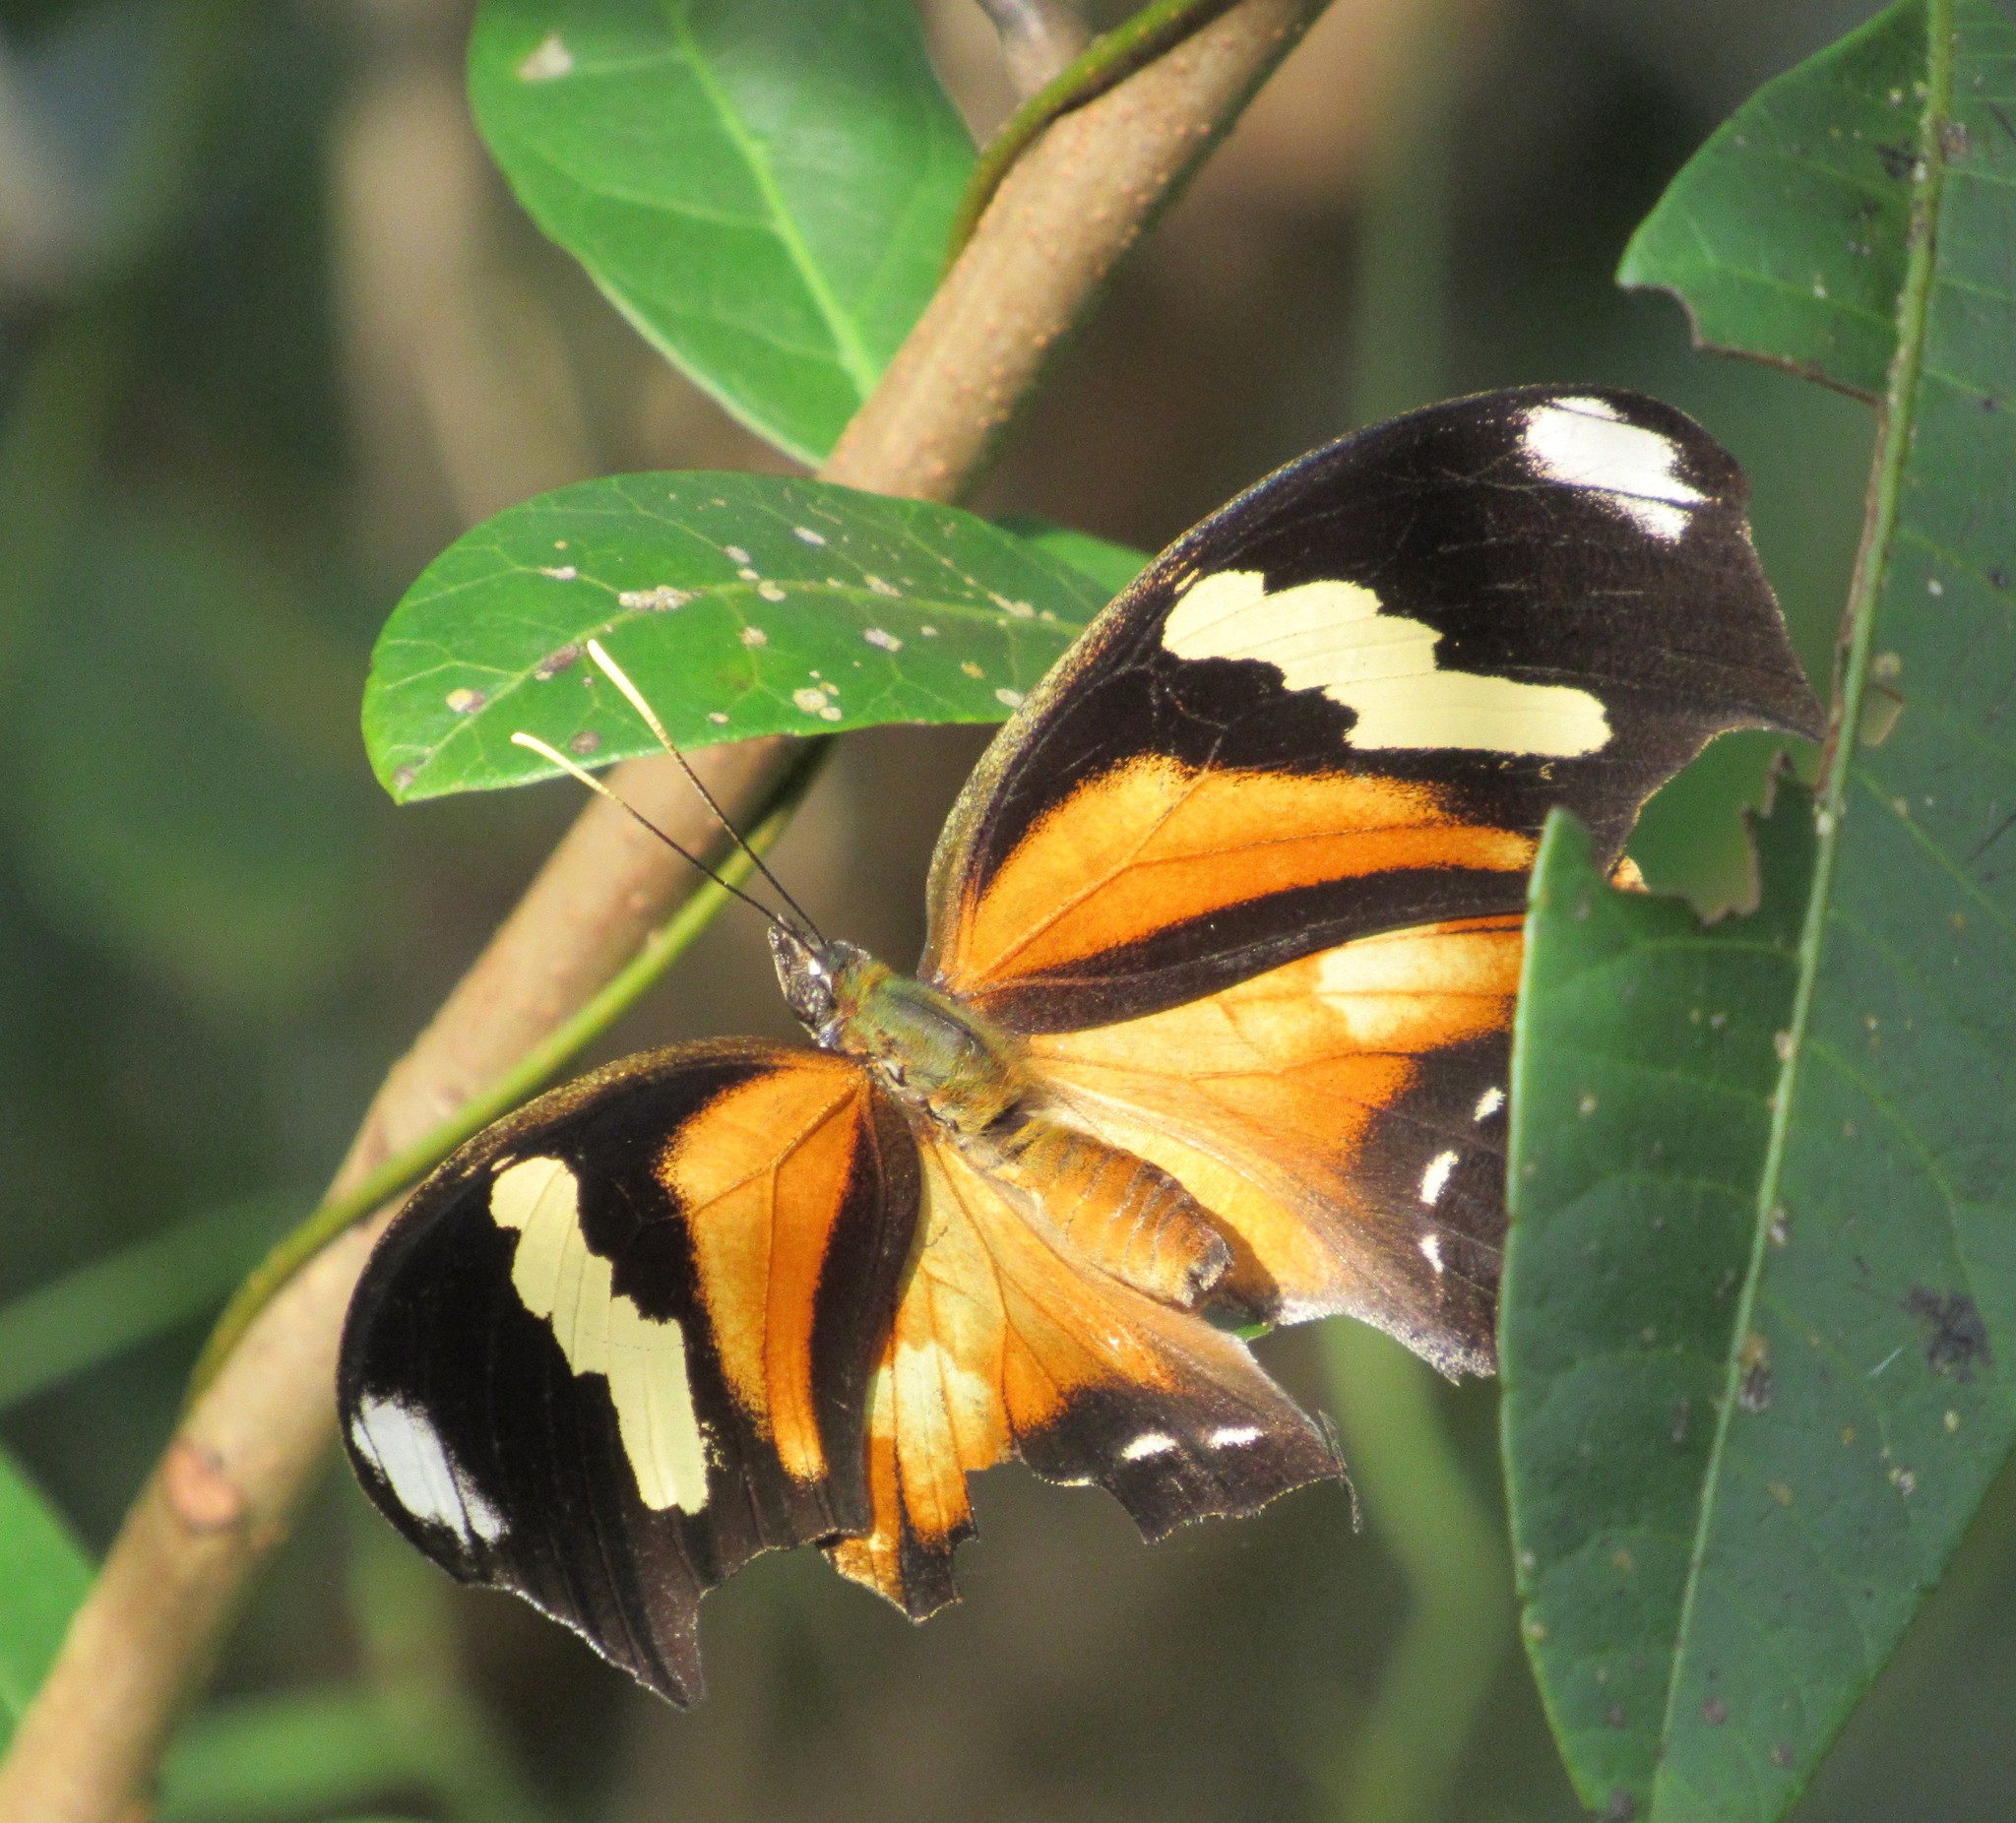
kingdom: Animalia
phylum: Arthropoda
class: Insecta
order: Lepidoptera
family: Nymphalidae
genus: Consul
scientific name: Consul fabius
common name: Tiger leafwing
